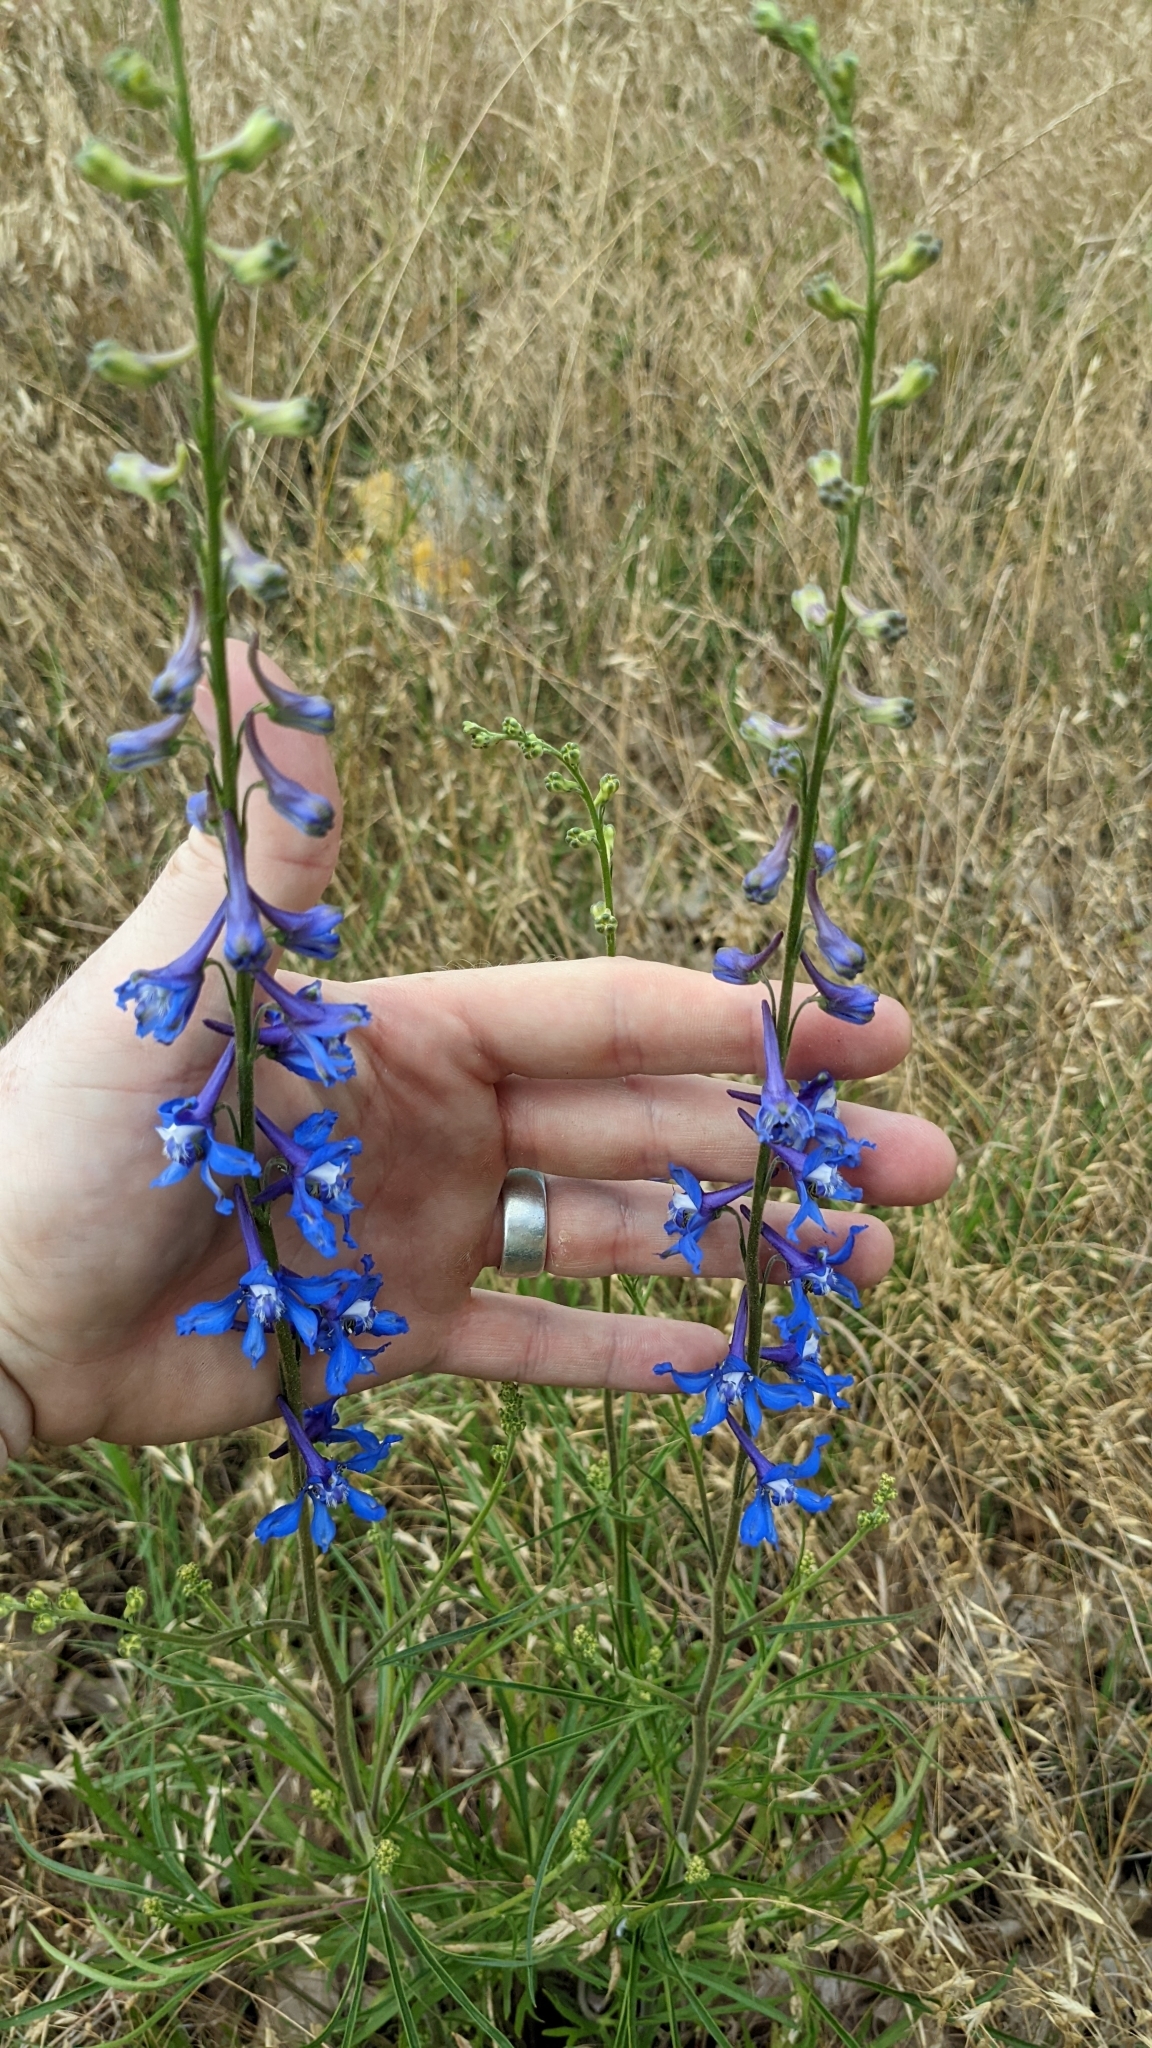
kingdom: Plantae
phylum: Tracheophyta
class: Magnoliopsida
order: Ranunculales
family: Ranunculaceae
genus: Delphinium
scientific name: Delphinium carolinianum
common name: Carolina larkspur
